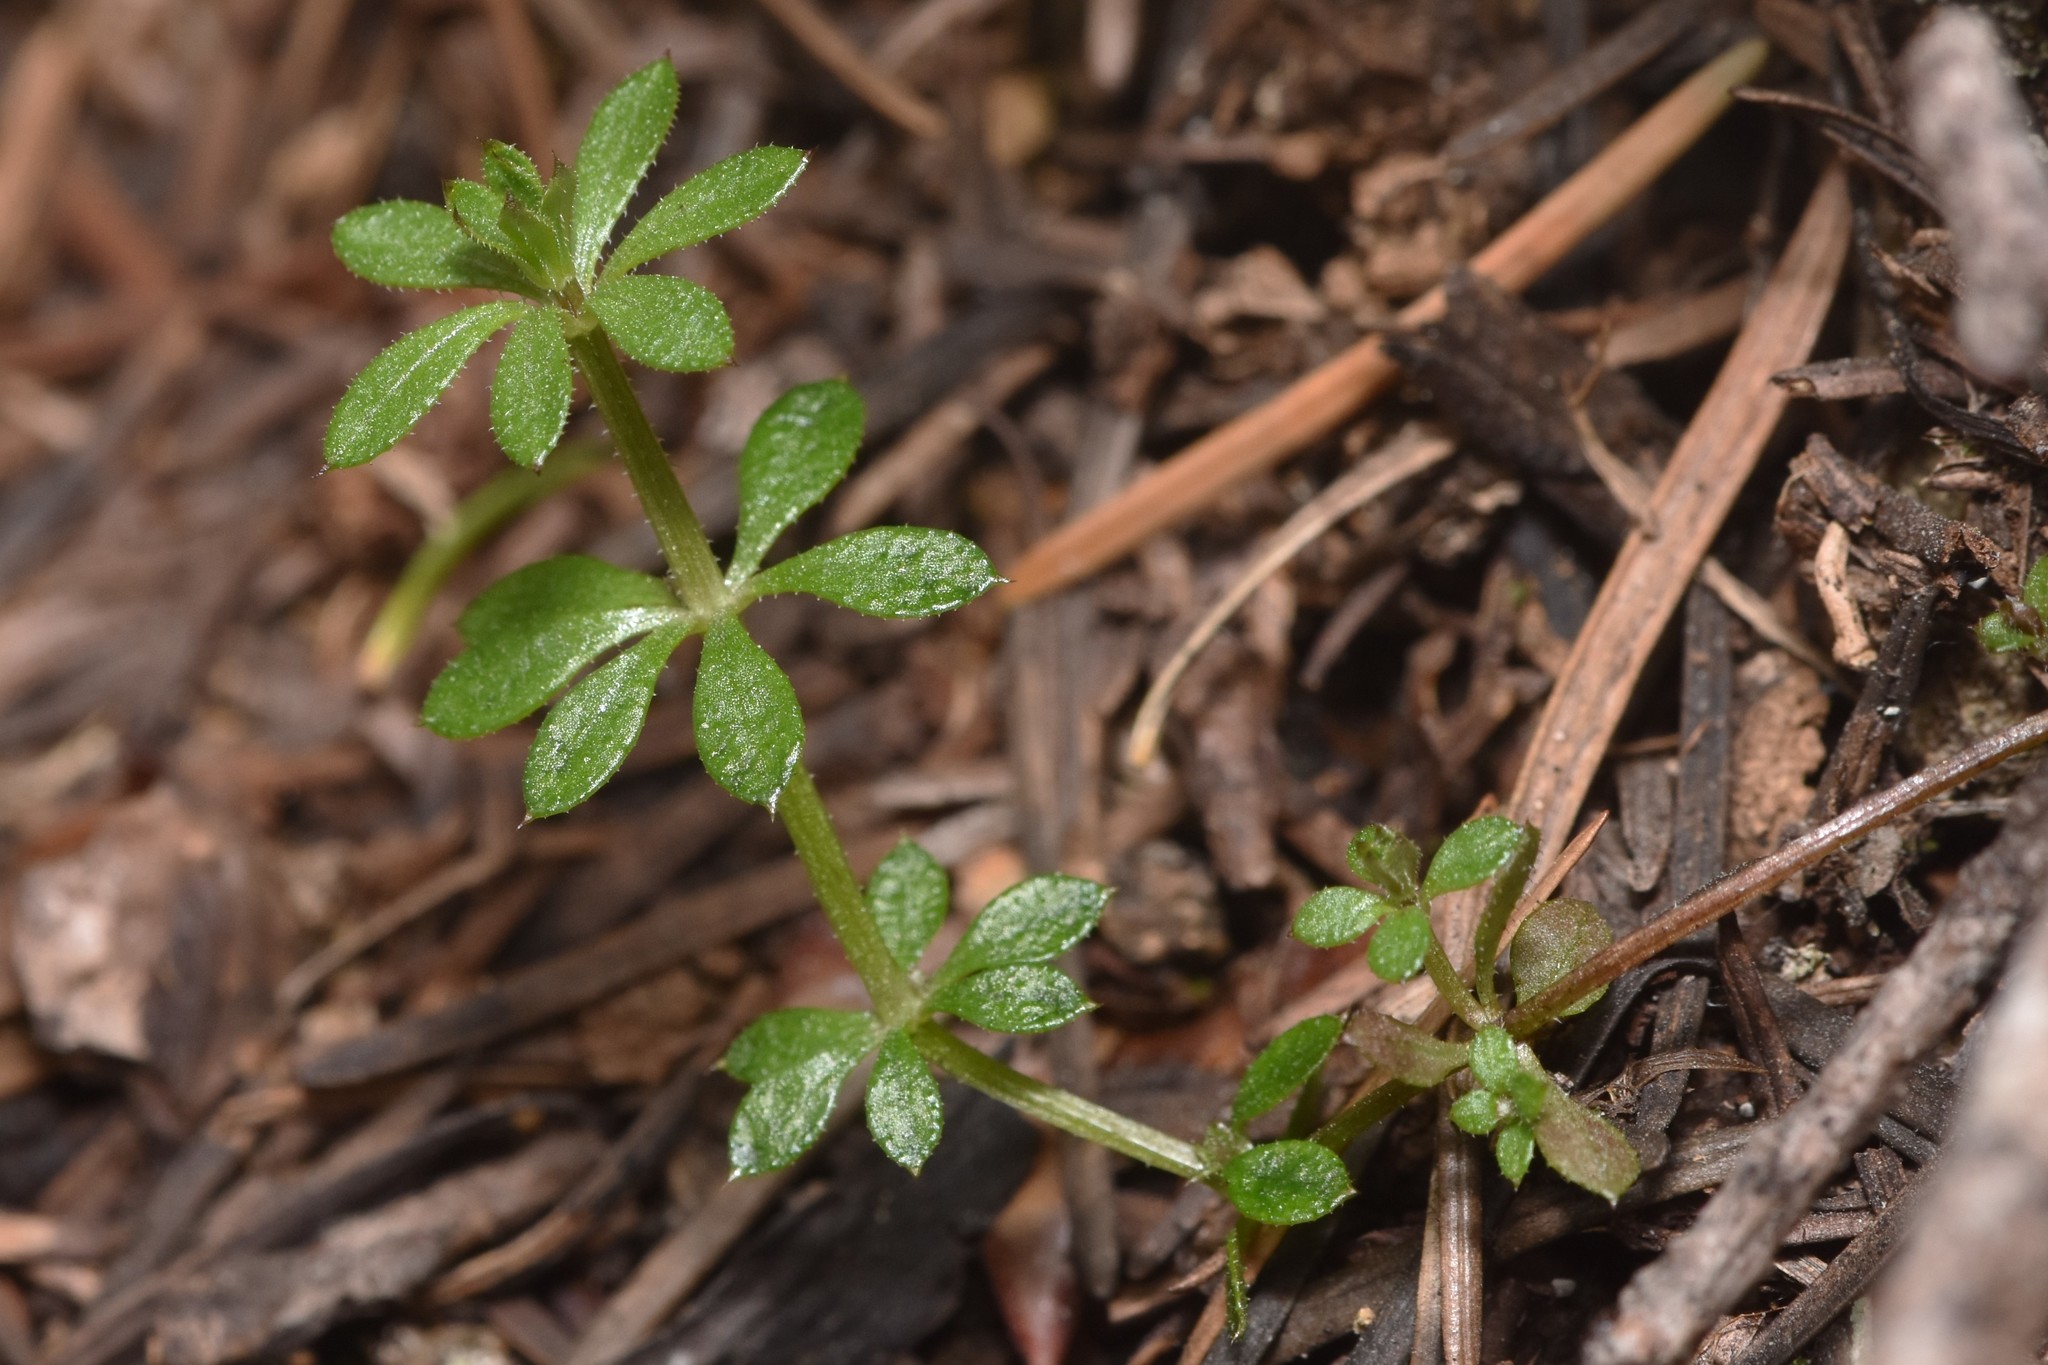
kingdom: Plantae
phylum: Tracheophyta
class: Magnoliopsida
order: Gentianales
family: Rubiaceae
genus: Galium
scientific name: Galium aparine
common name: Cleavers
